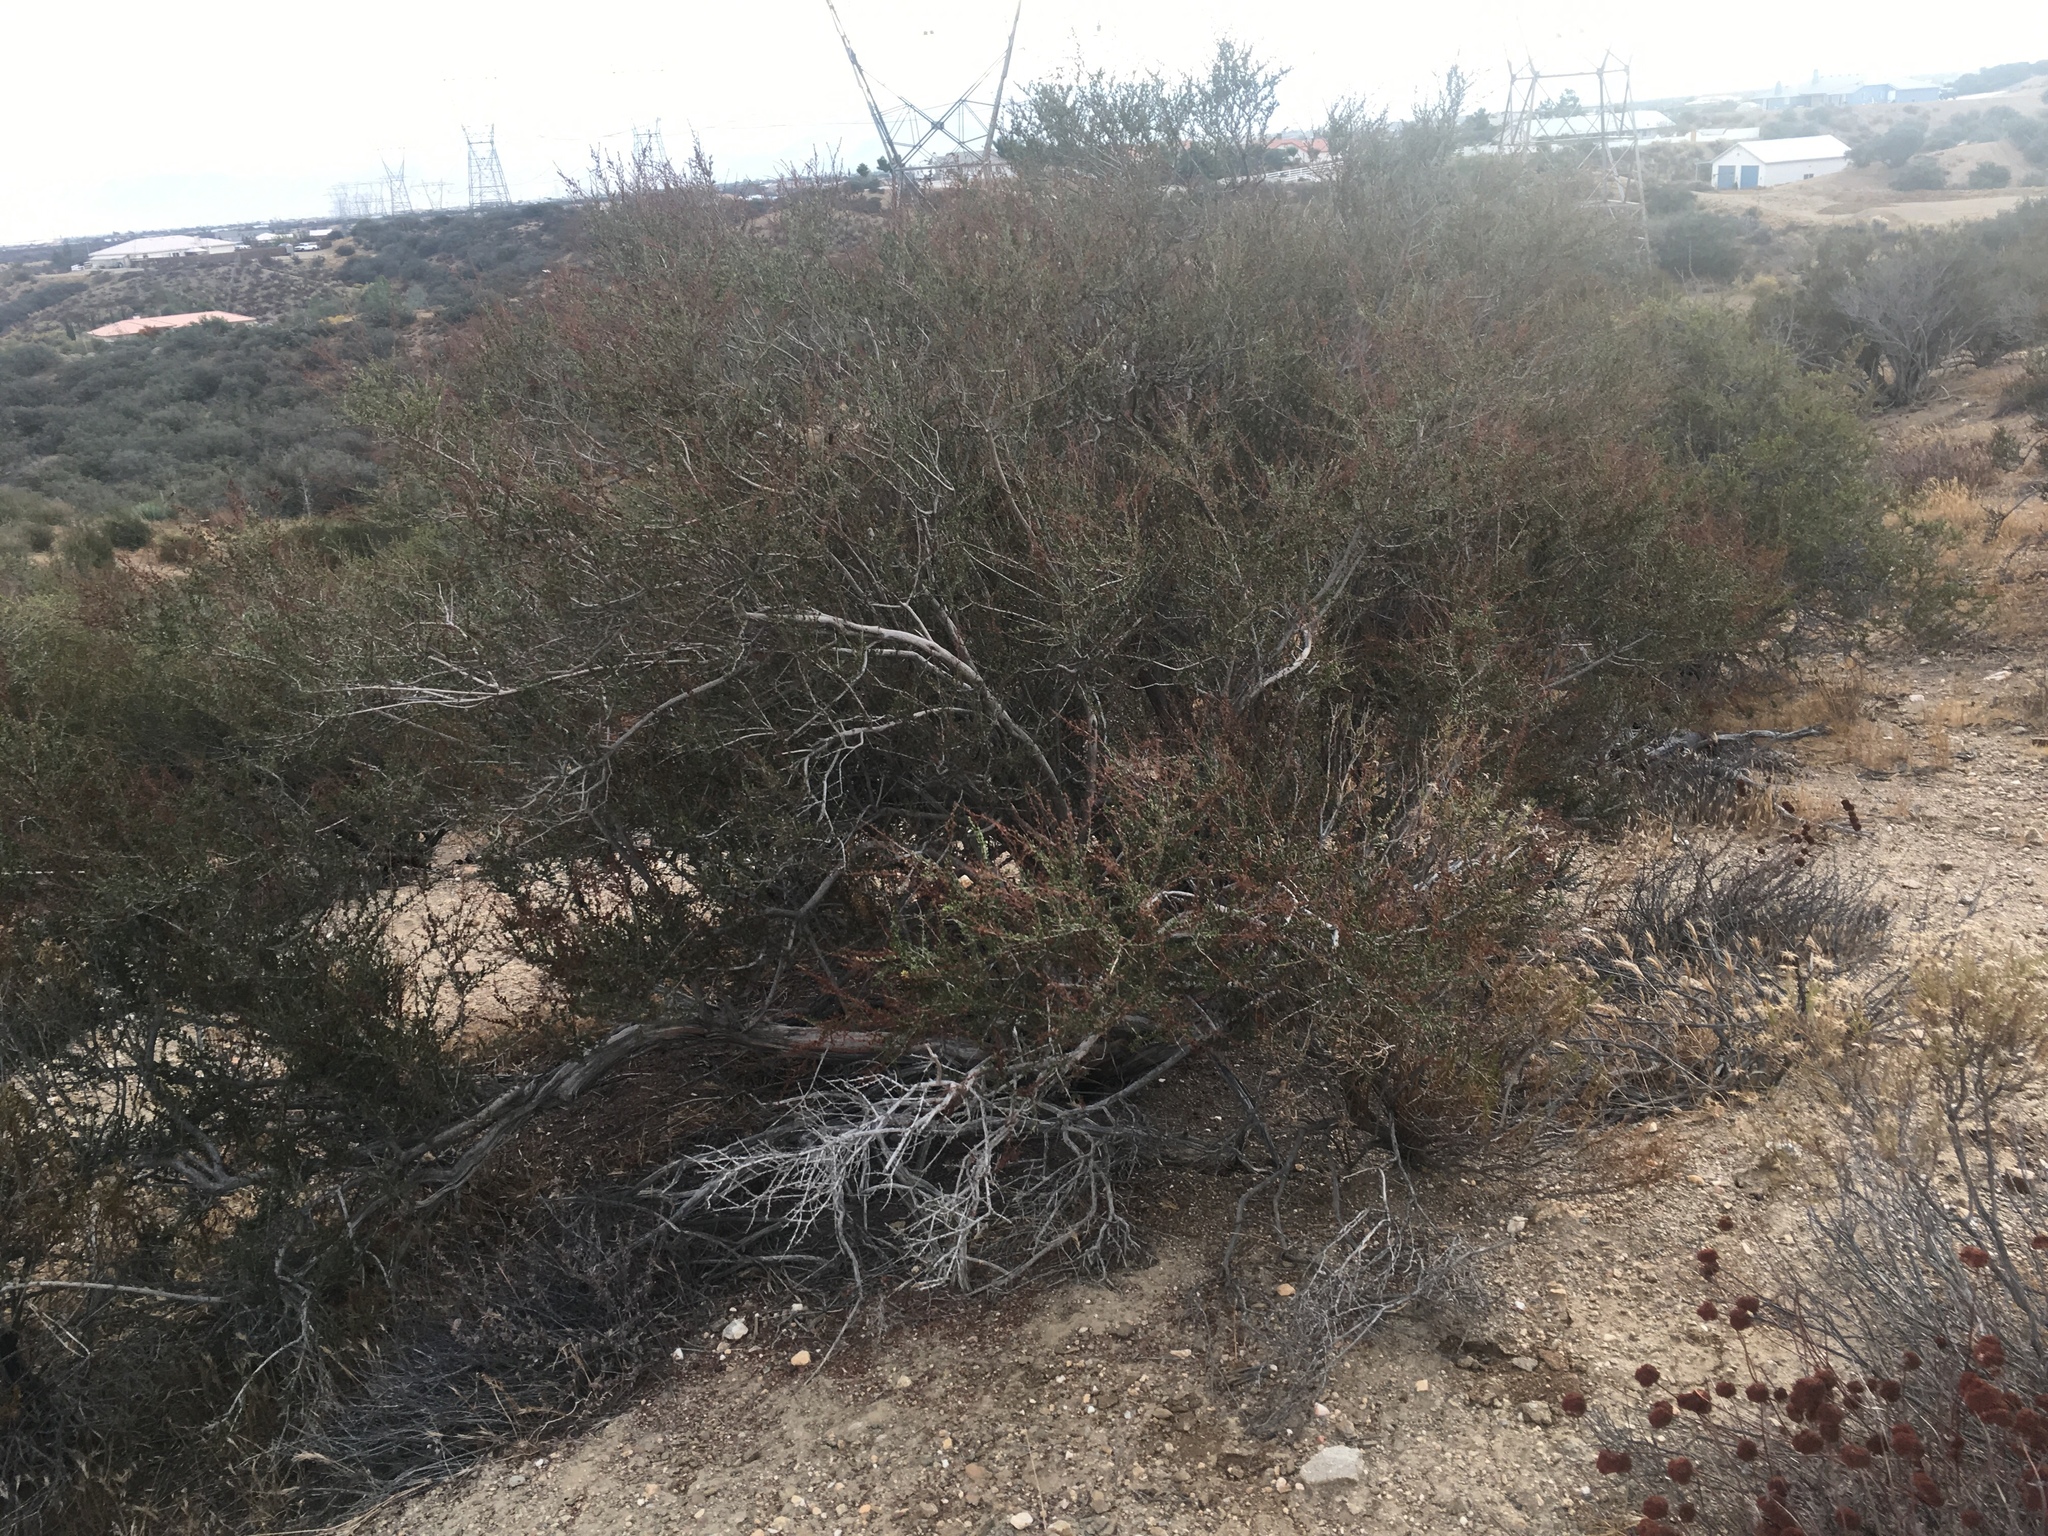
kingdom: Plantae
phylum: Tracheophyta
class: Magnoliopsida
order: Rosales
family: Rosaceae
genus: Adenostoma
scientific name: Adenostoma fasciculatum
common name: Chamise
